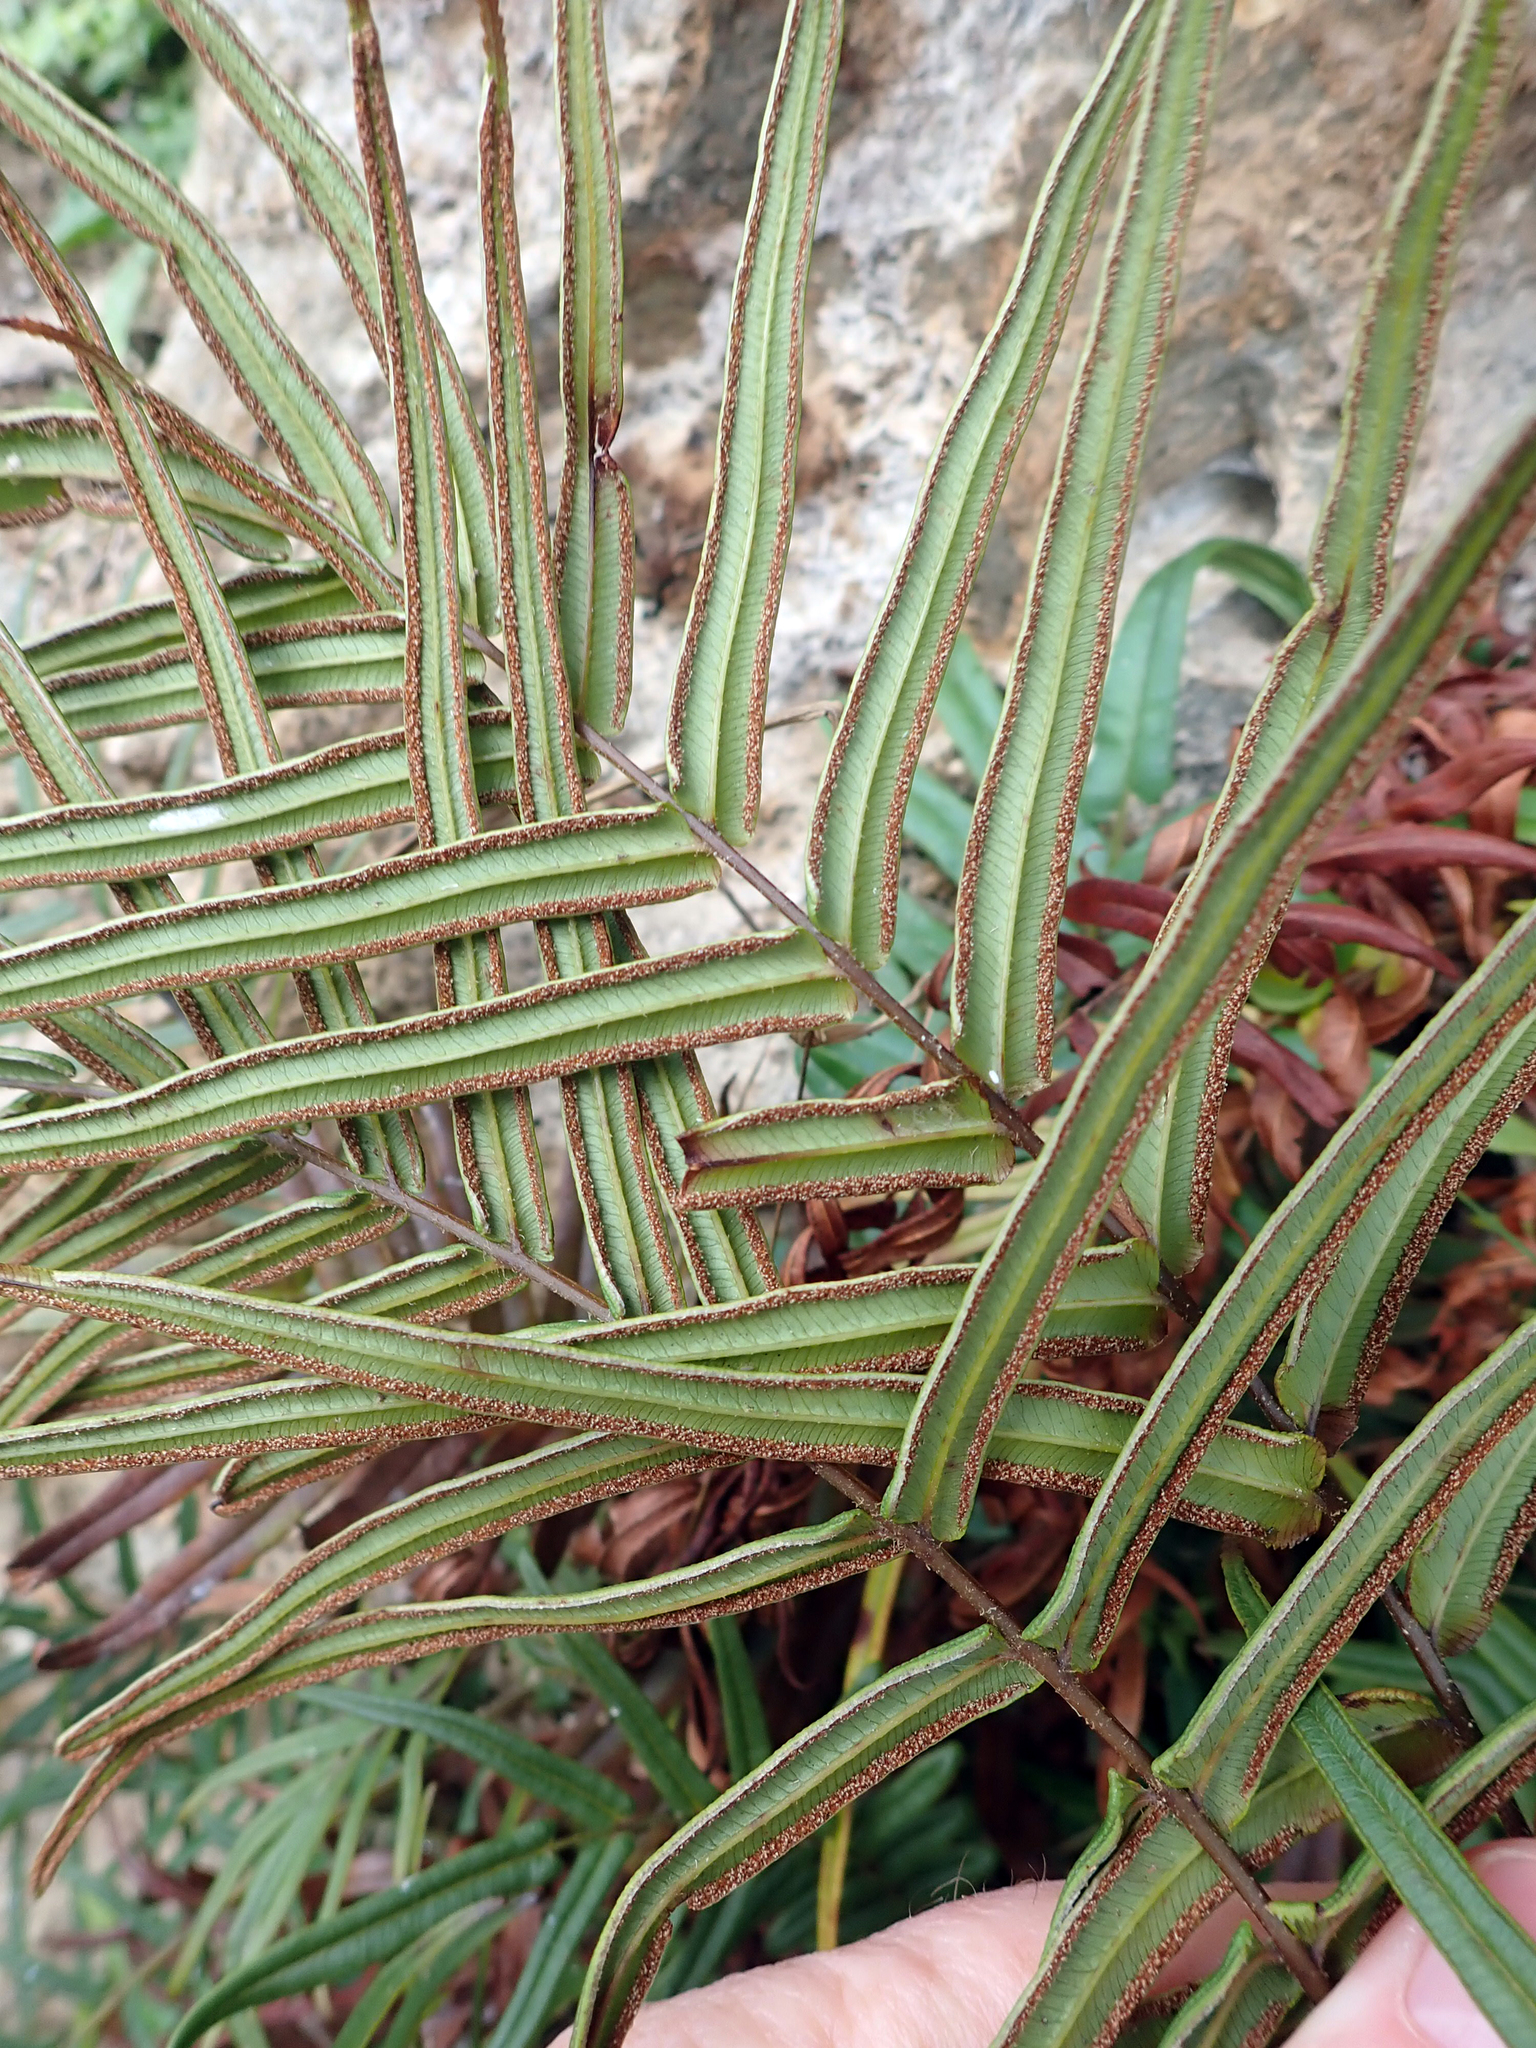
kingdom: Plantae
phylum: Tracheophyta
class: Polypodiopsida
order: Polypodiales
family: Pteridaceae
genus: Pteris
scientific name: Pteris vittata
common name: Ladder brake
